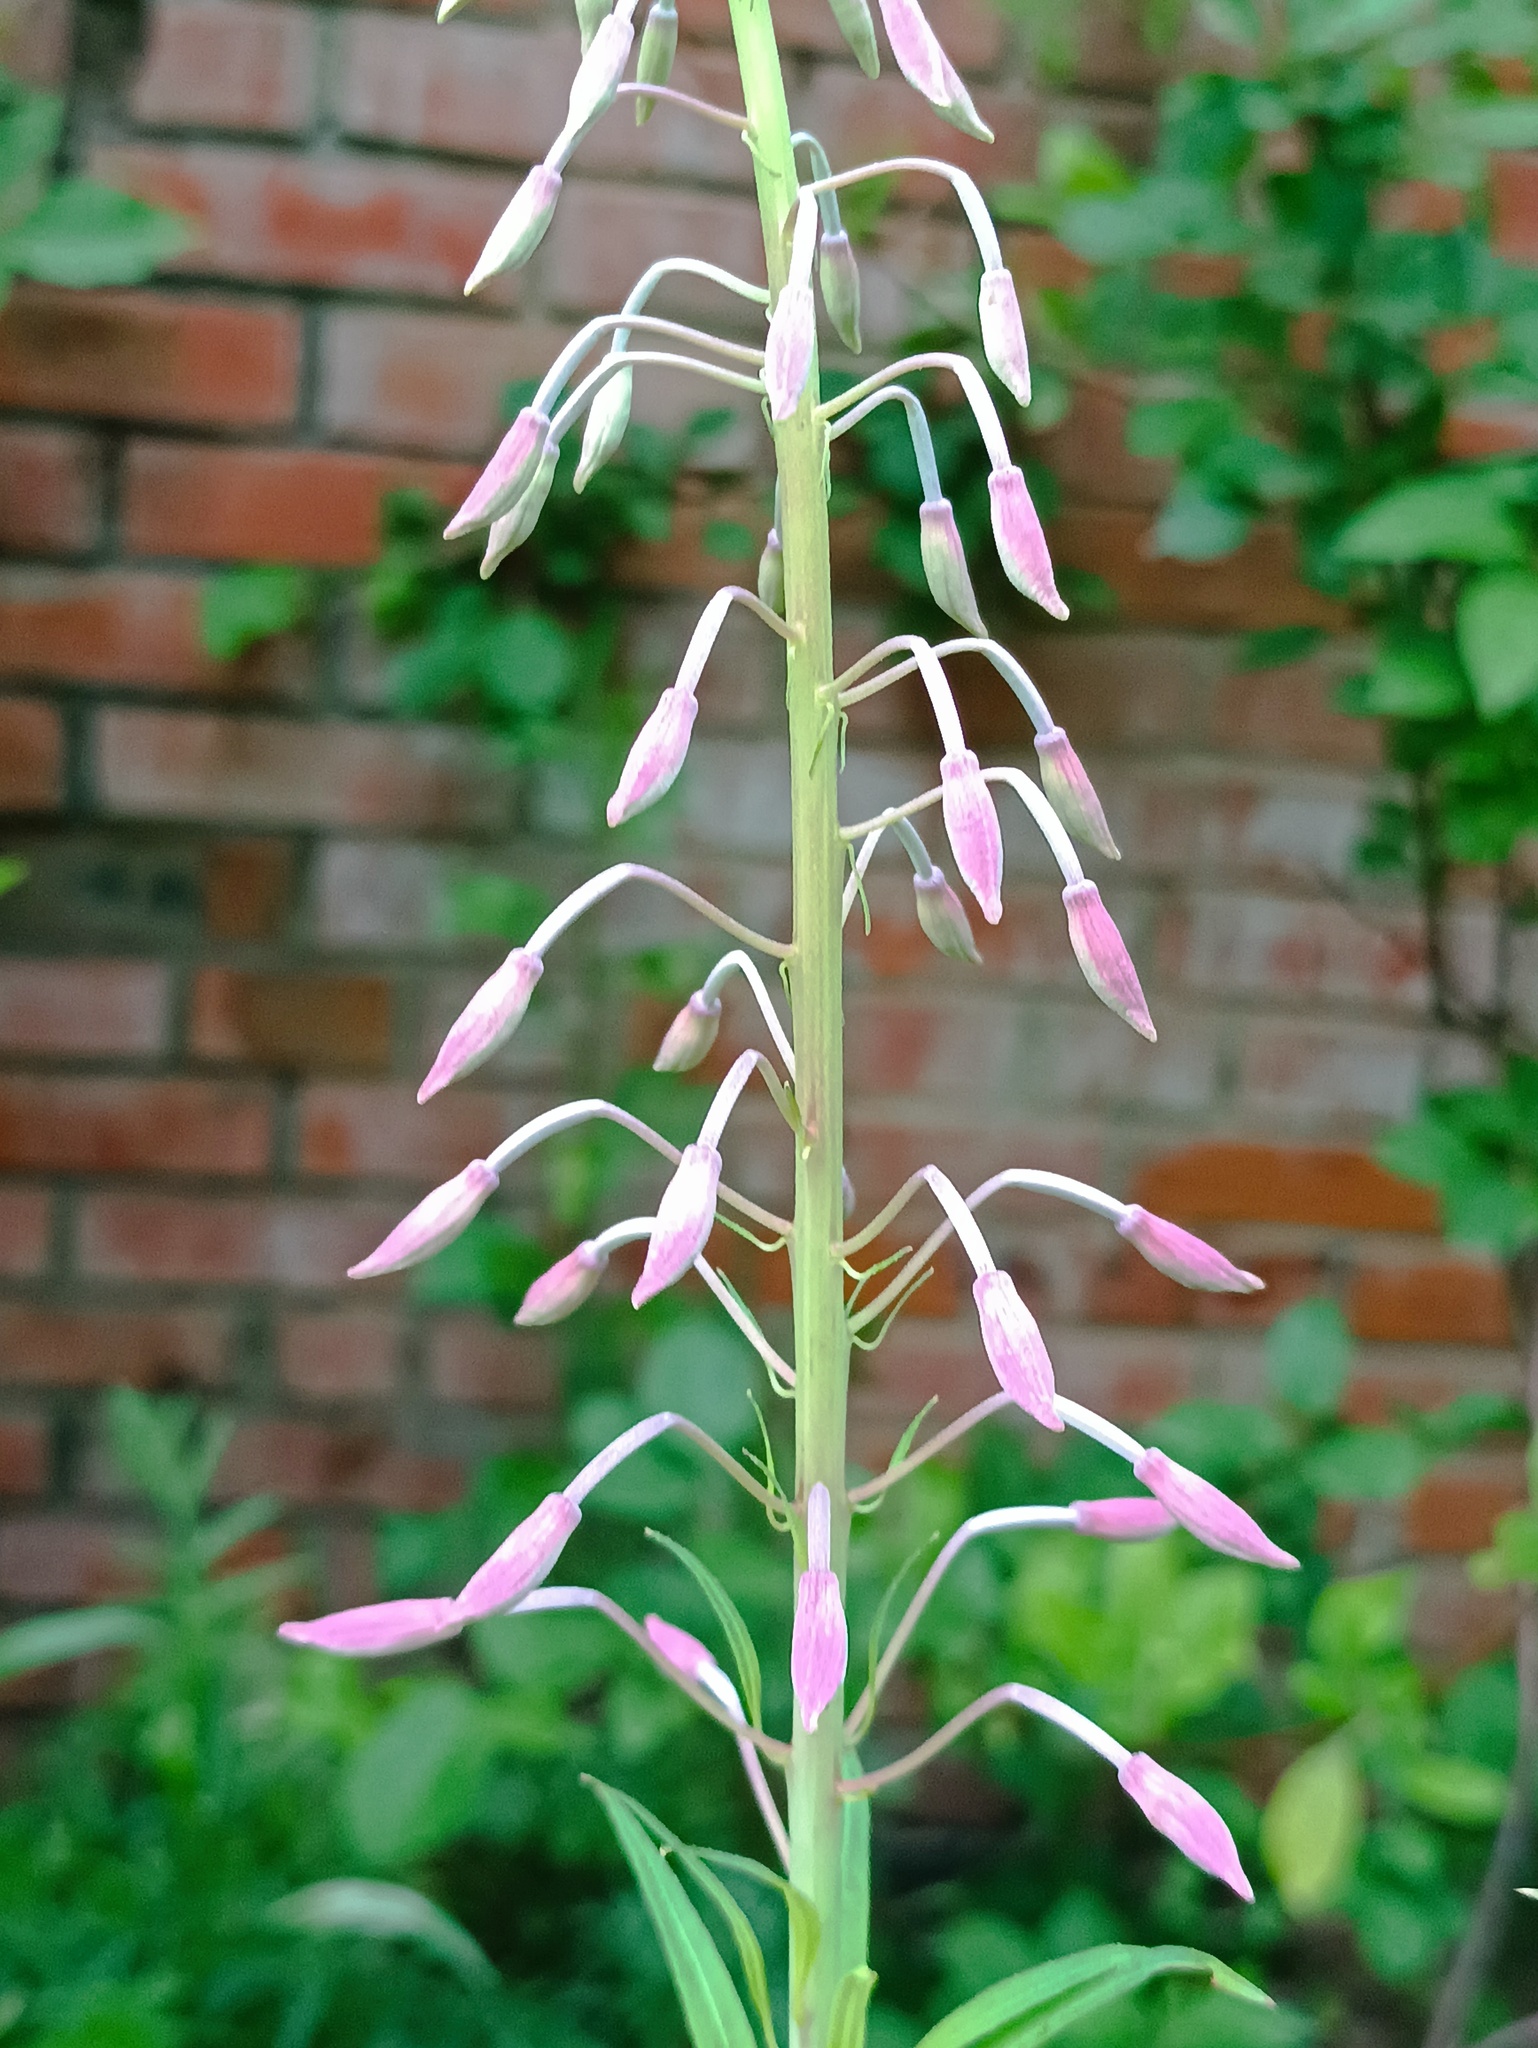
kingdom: Plantae
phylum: Tracheophyta
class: Magnoliopsida
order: Myrtales
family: Onagraceae
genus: Chamaenerion
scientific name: Chamaenerion angustifolium
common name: Fireweed
